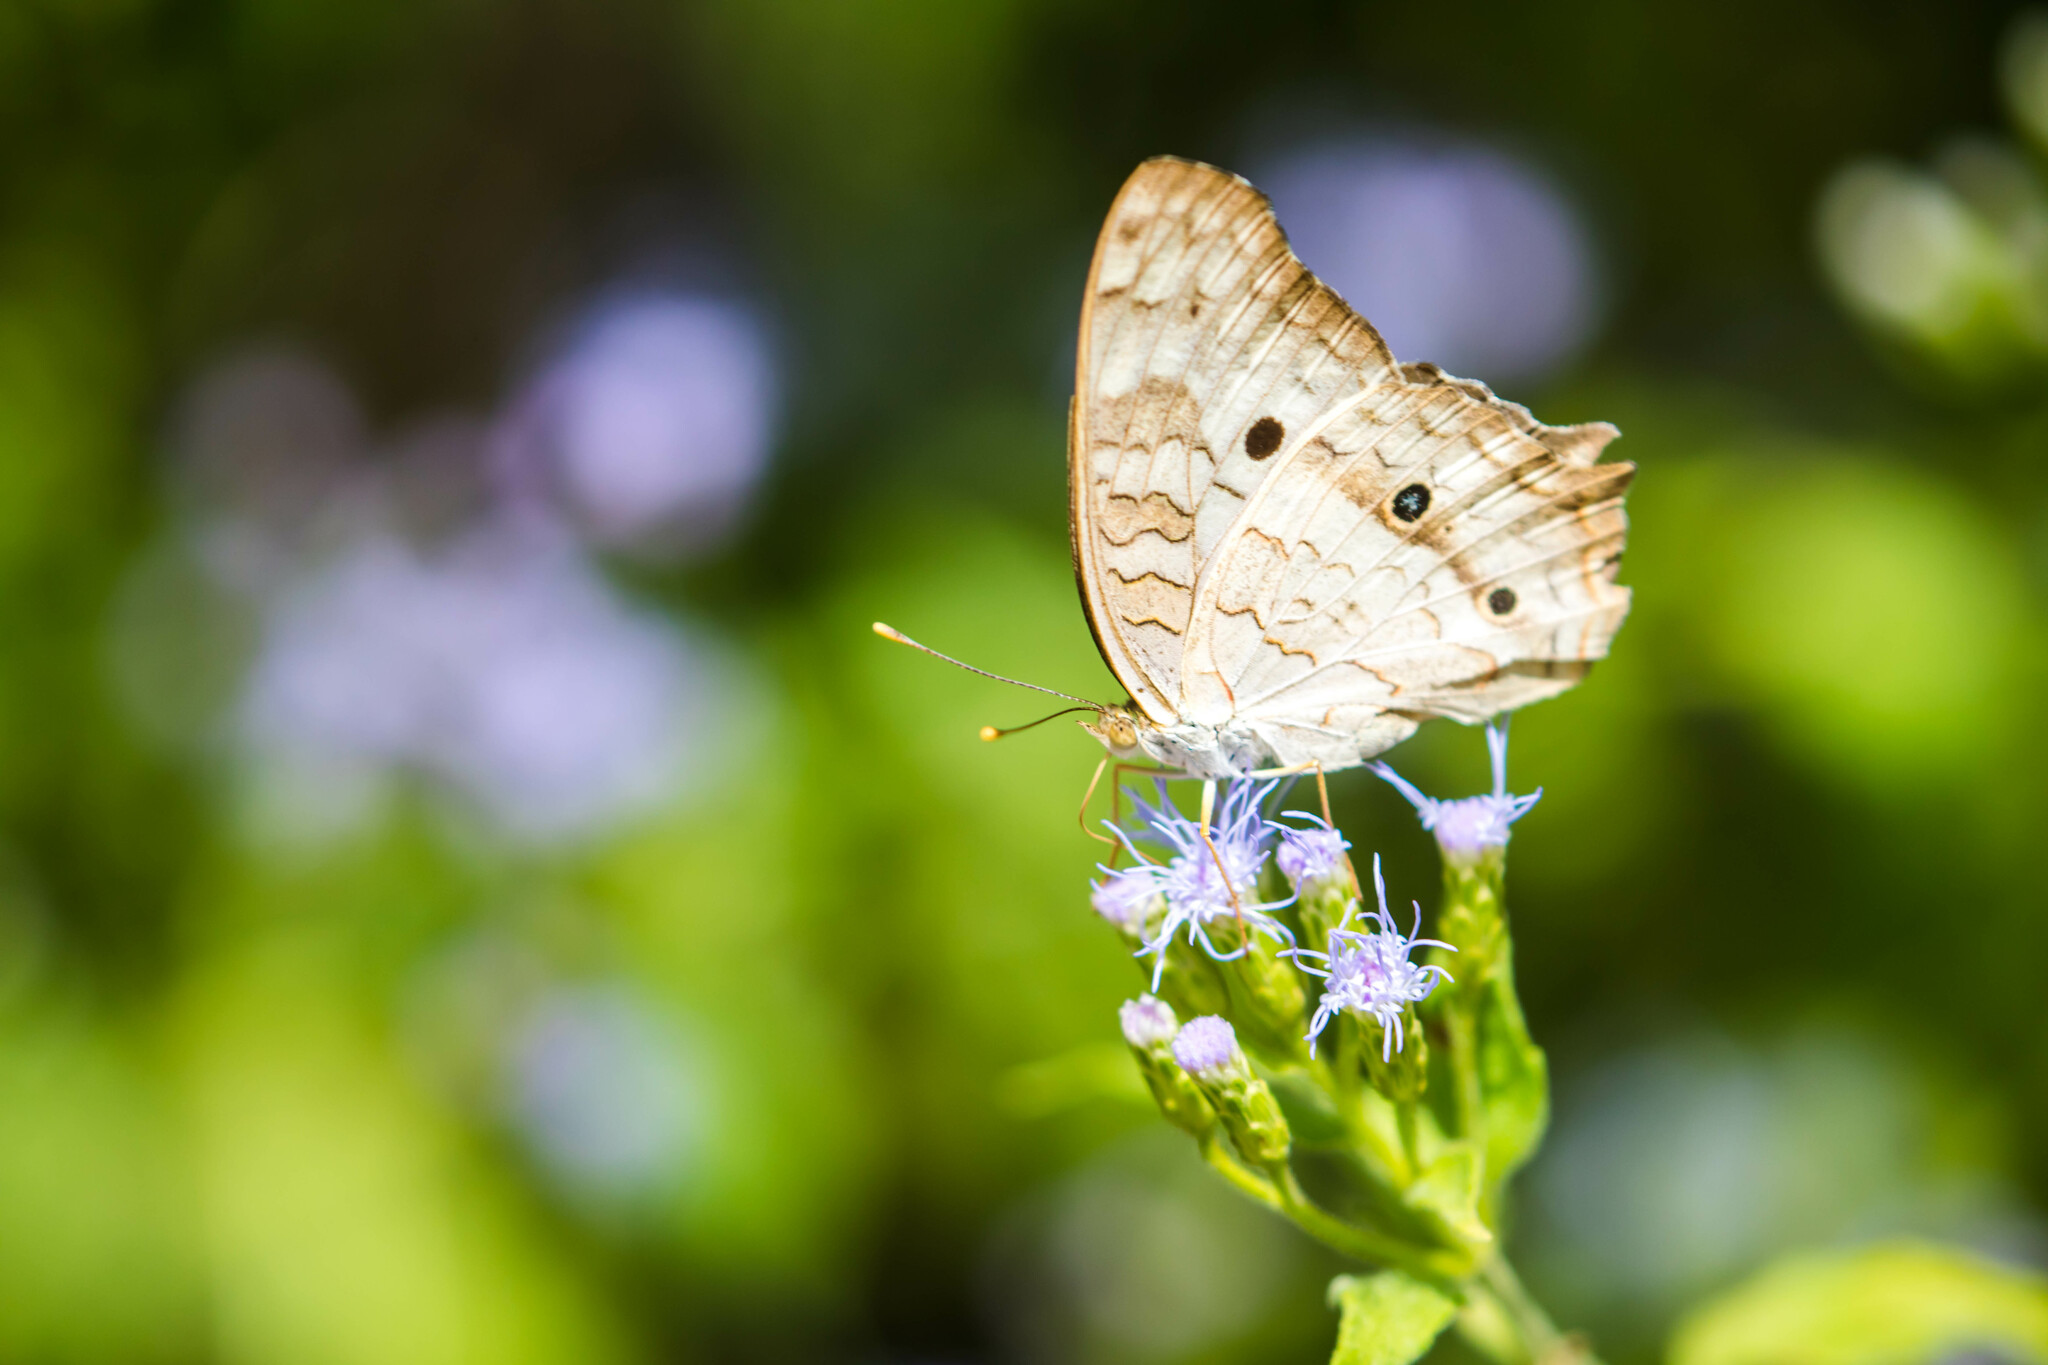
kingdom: Animalia
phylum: Arthropoda
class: Insecta
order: Lepidoptera
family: Nymphalidae
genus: Anartia
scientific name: Anartia jatrophae
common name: White peacock
